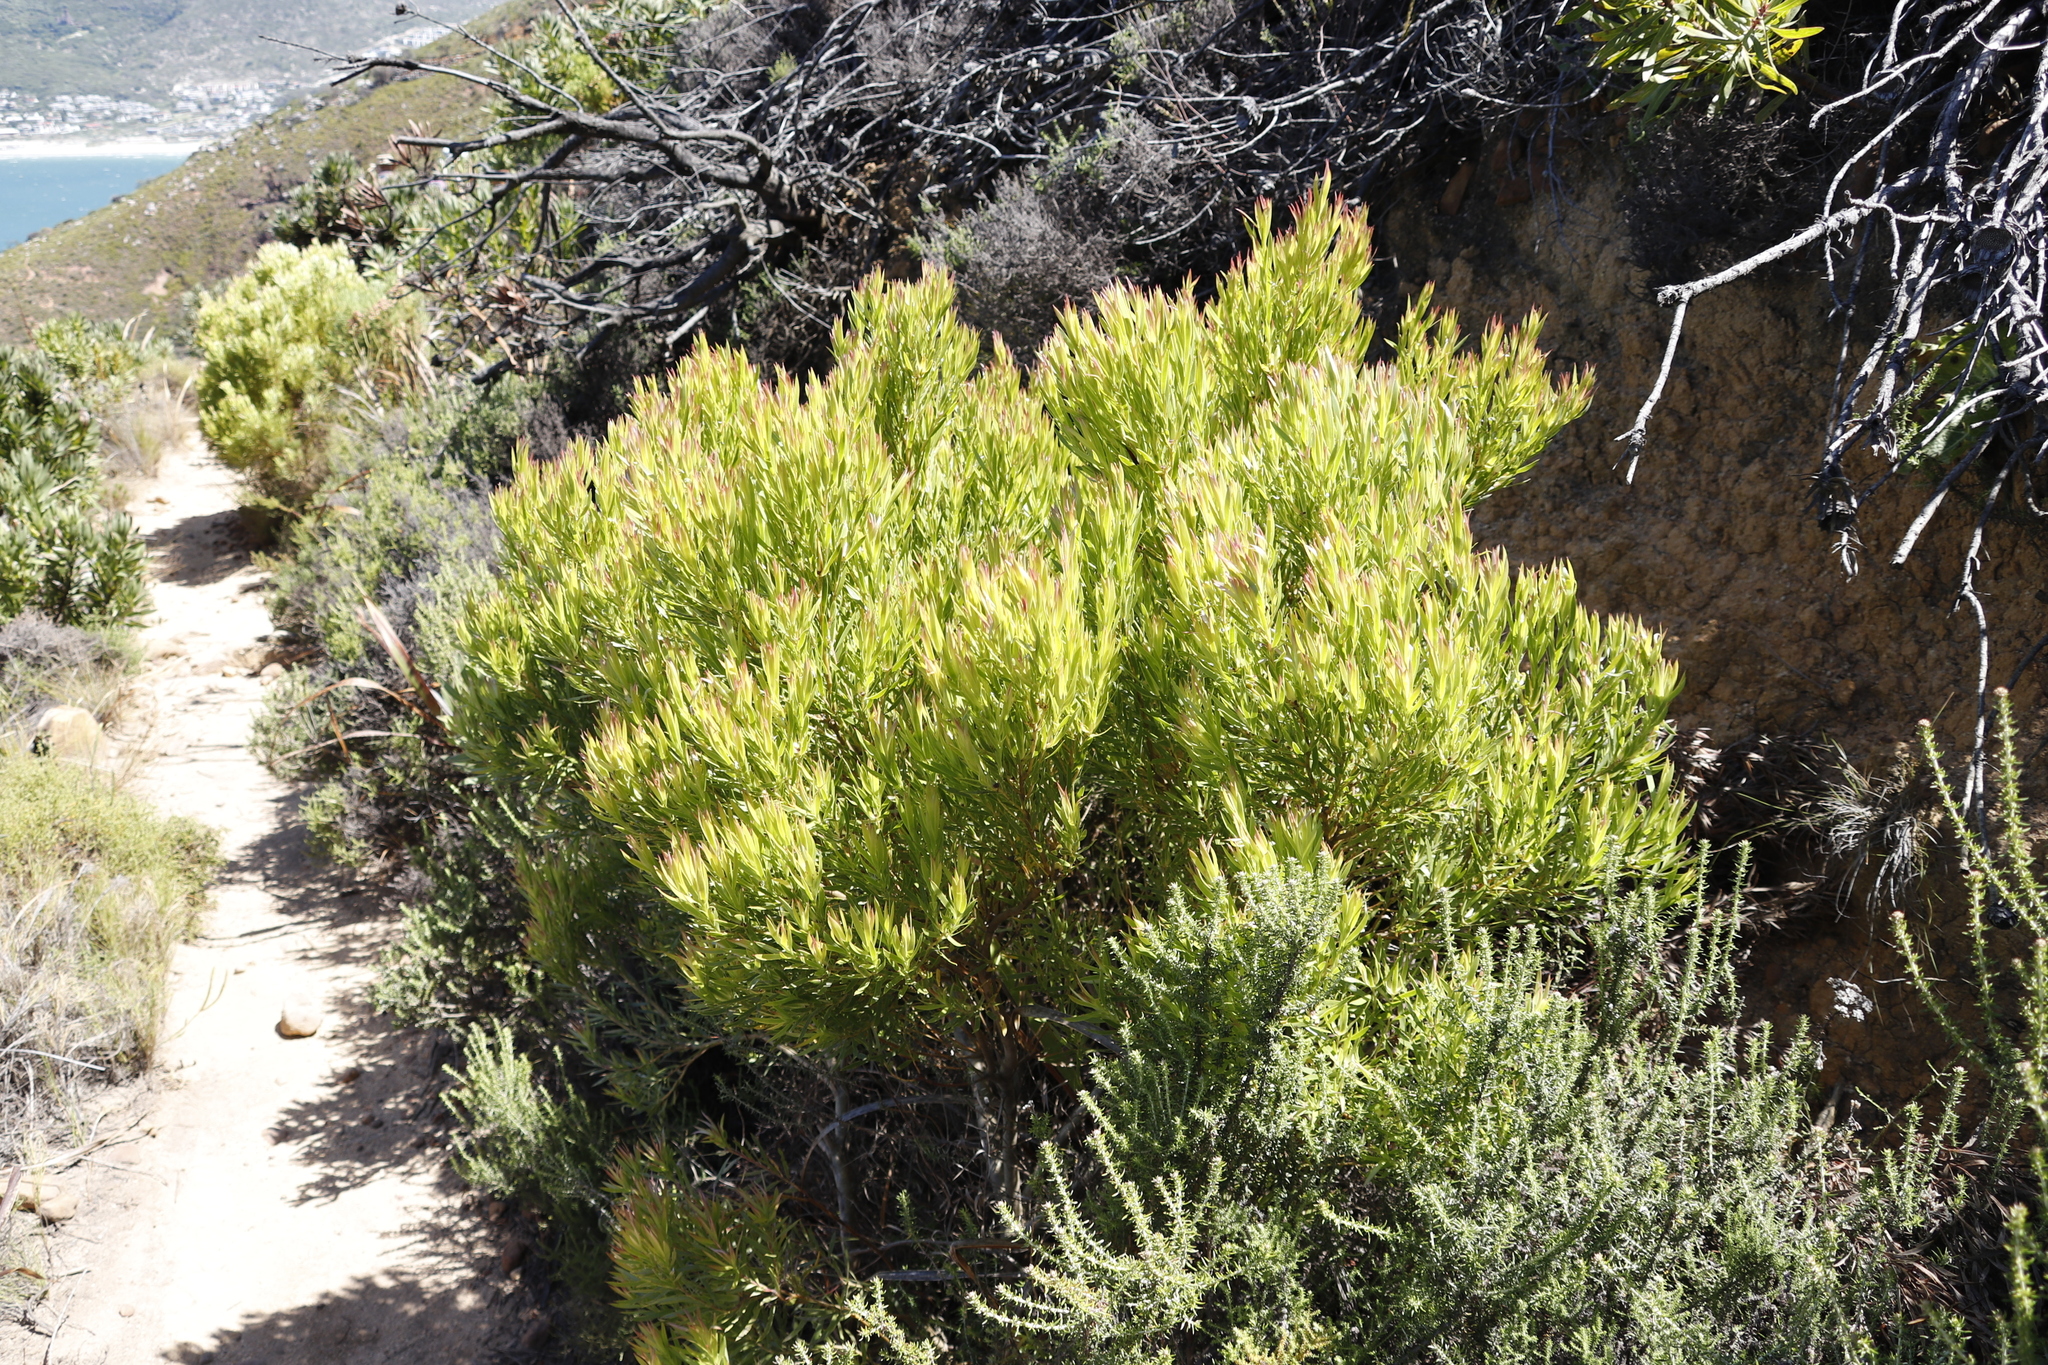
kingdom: Plantae
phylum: Tracheophyta
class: Magnoliopsida
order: Proteales
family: Proteaceae
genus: Leucadendron
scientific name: Leucadendron xanthoconus
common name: Sickle-leaf conebush
